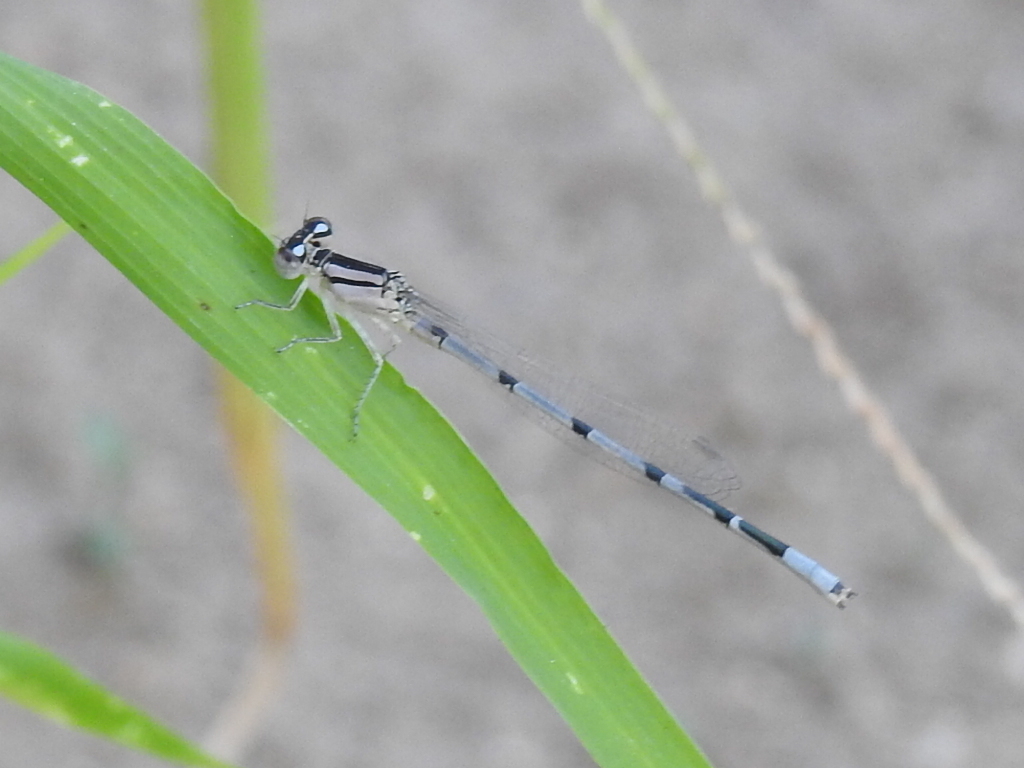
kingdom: Animalia
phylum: Arthropoda
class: Insecta
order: Odonata
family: Coenagrionidae
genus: Enallagma
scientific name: Enallagma civile
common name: Damselfly
